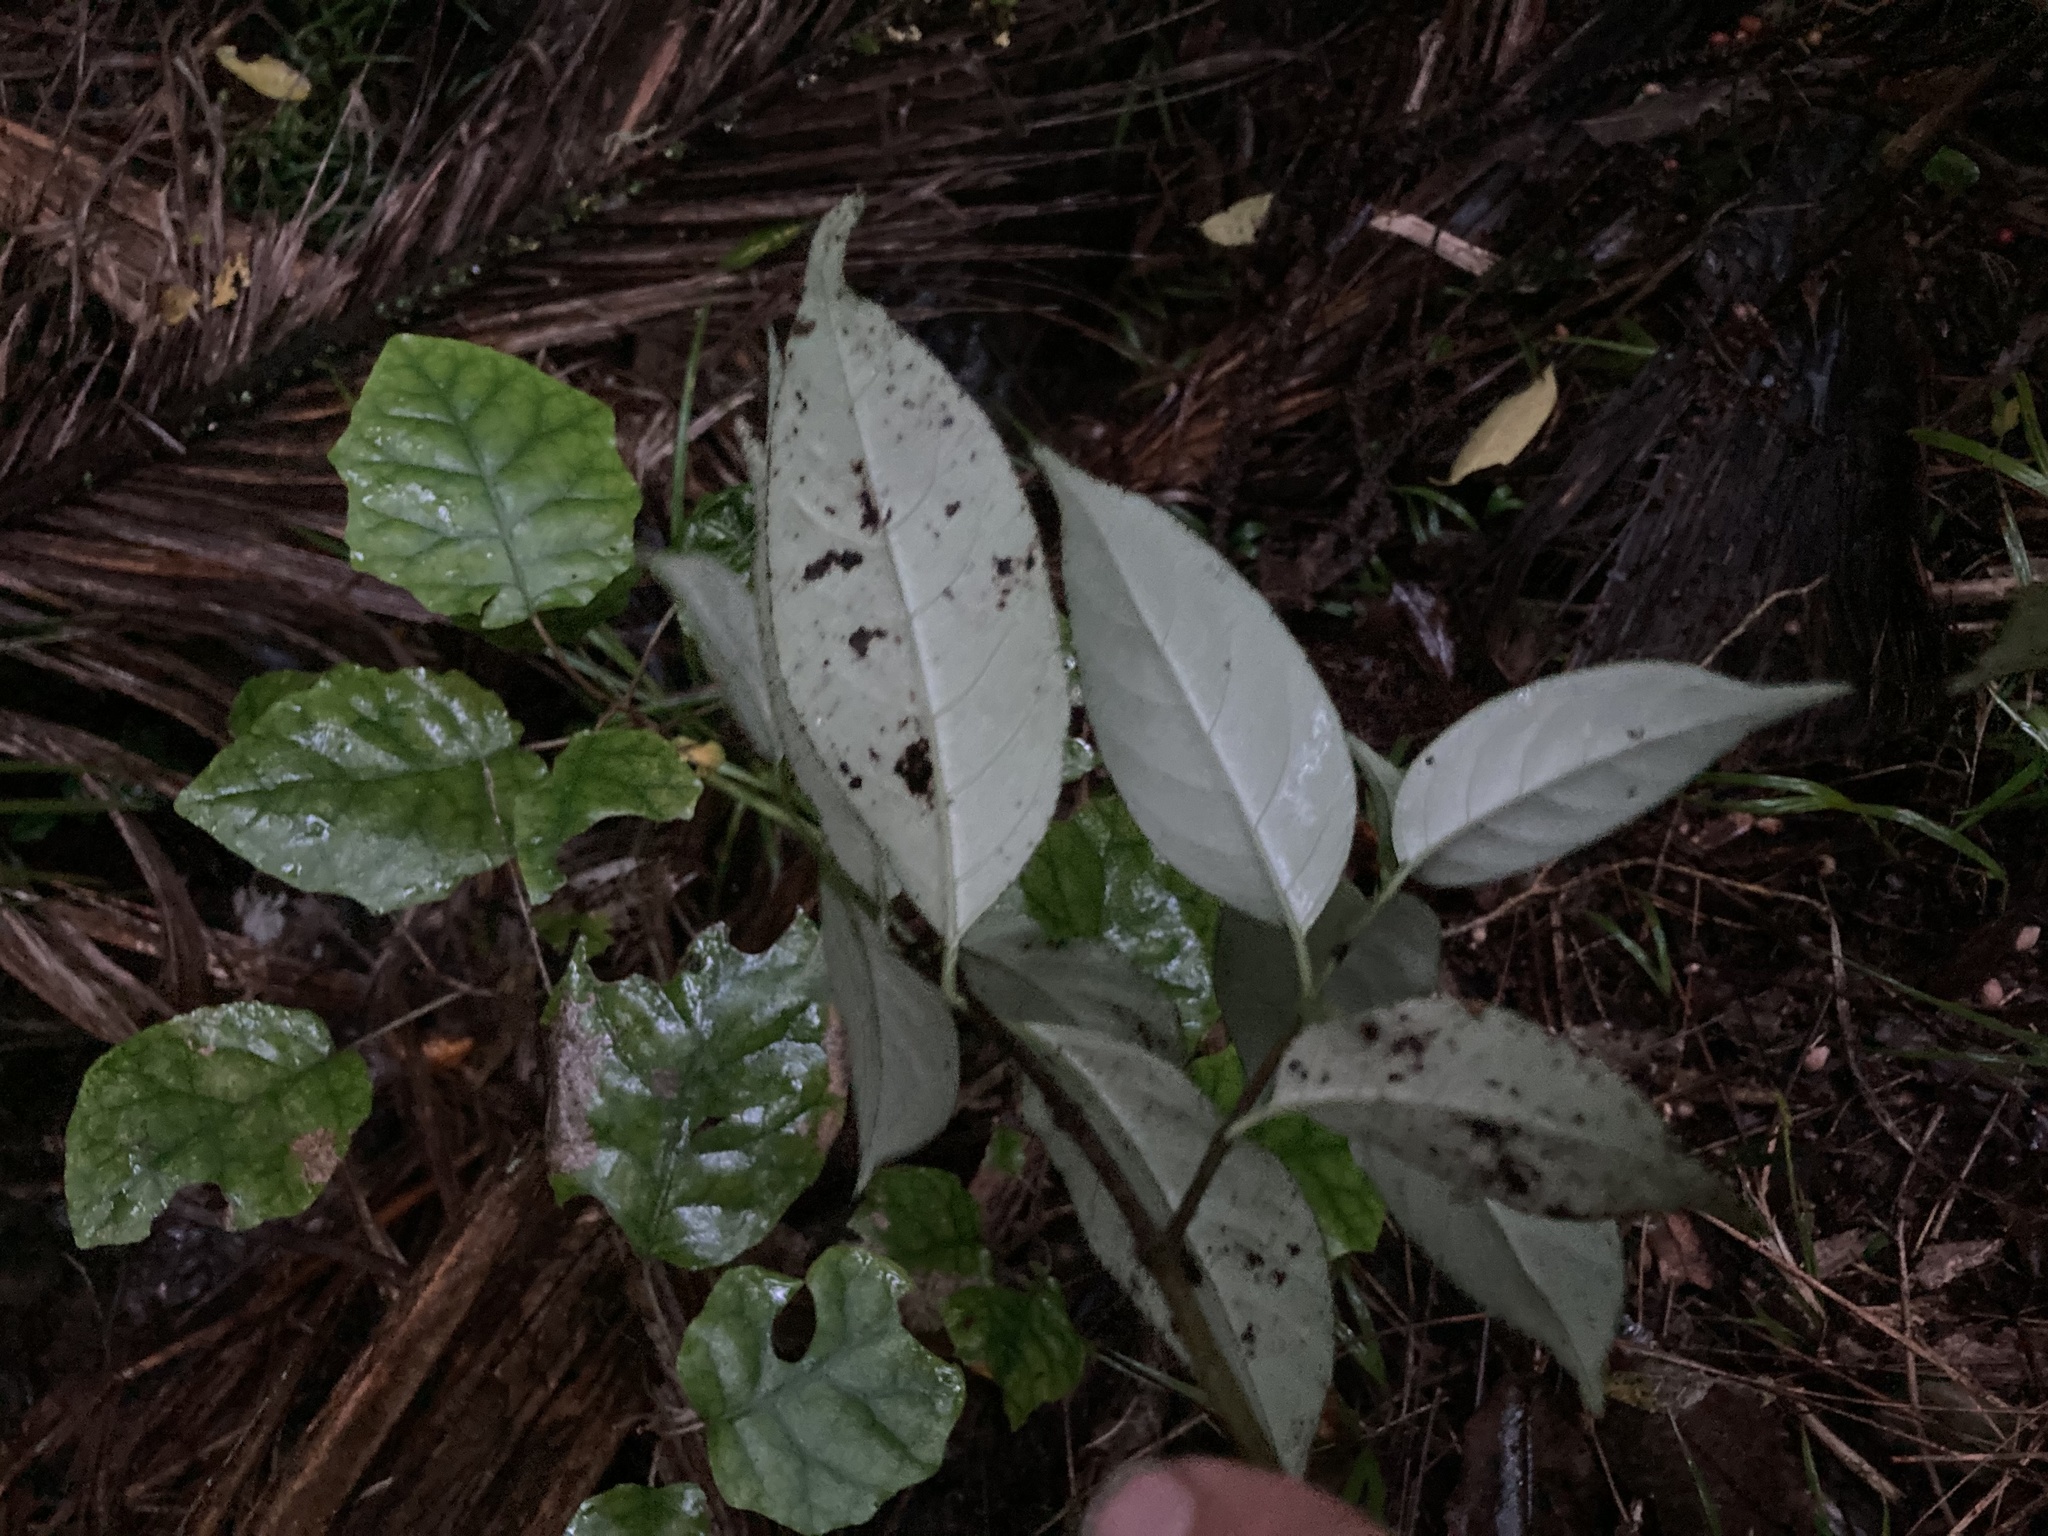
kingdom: Plantae
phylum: Tracheophyta
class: Magnoliopsida
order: Gentianales
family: Loganiaceae
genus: Geniostoma
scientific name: Geniostoma ligustrifolium
